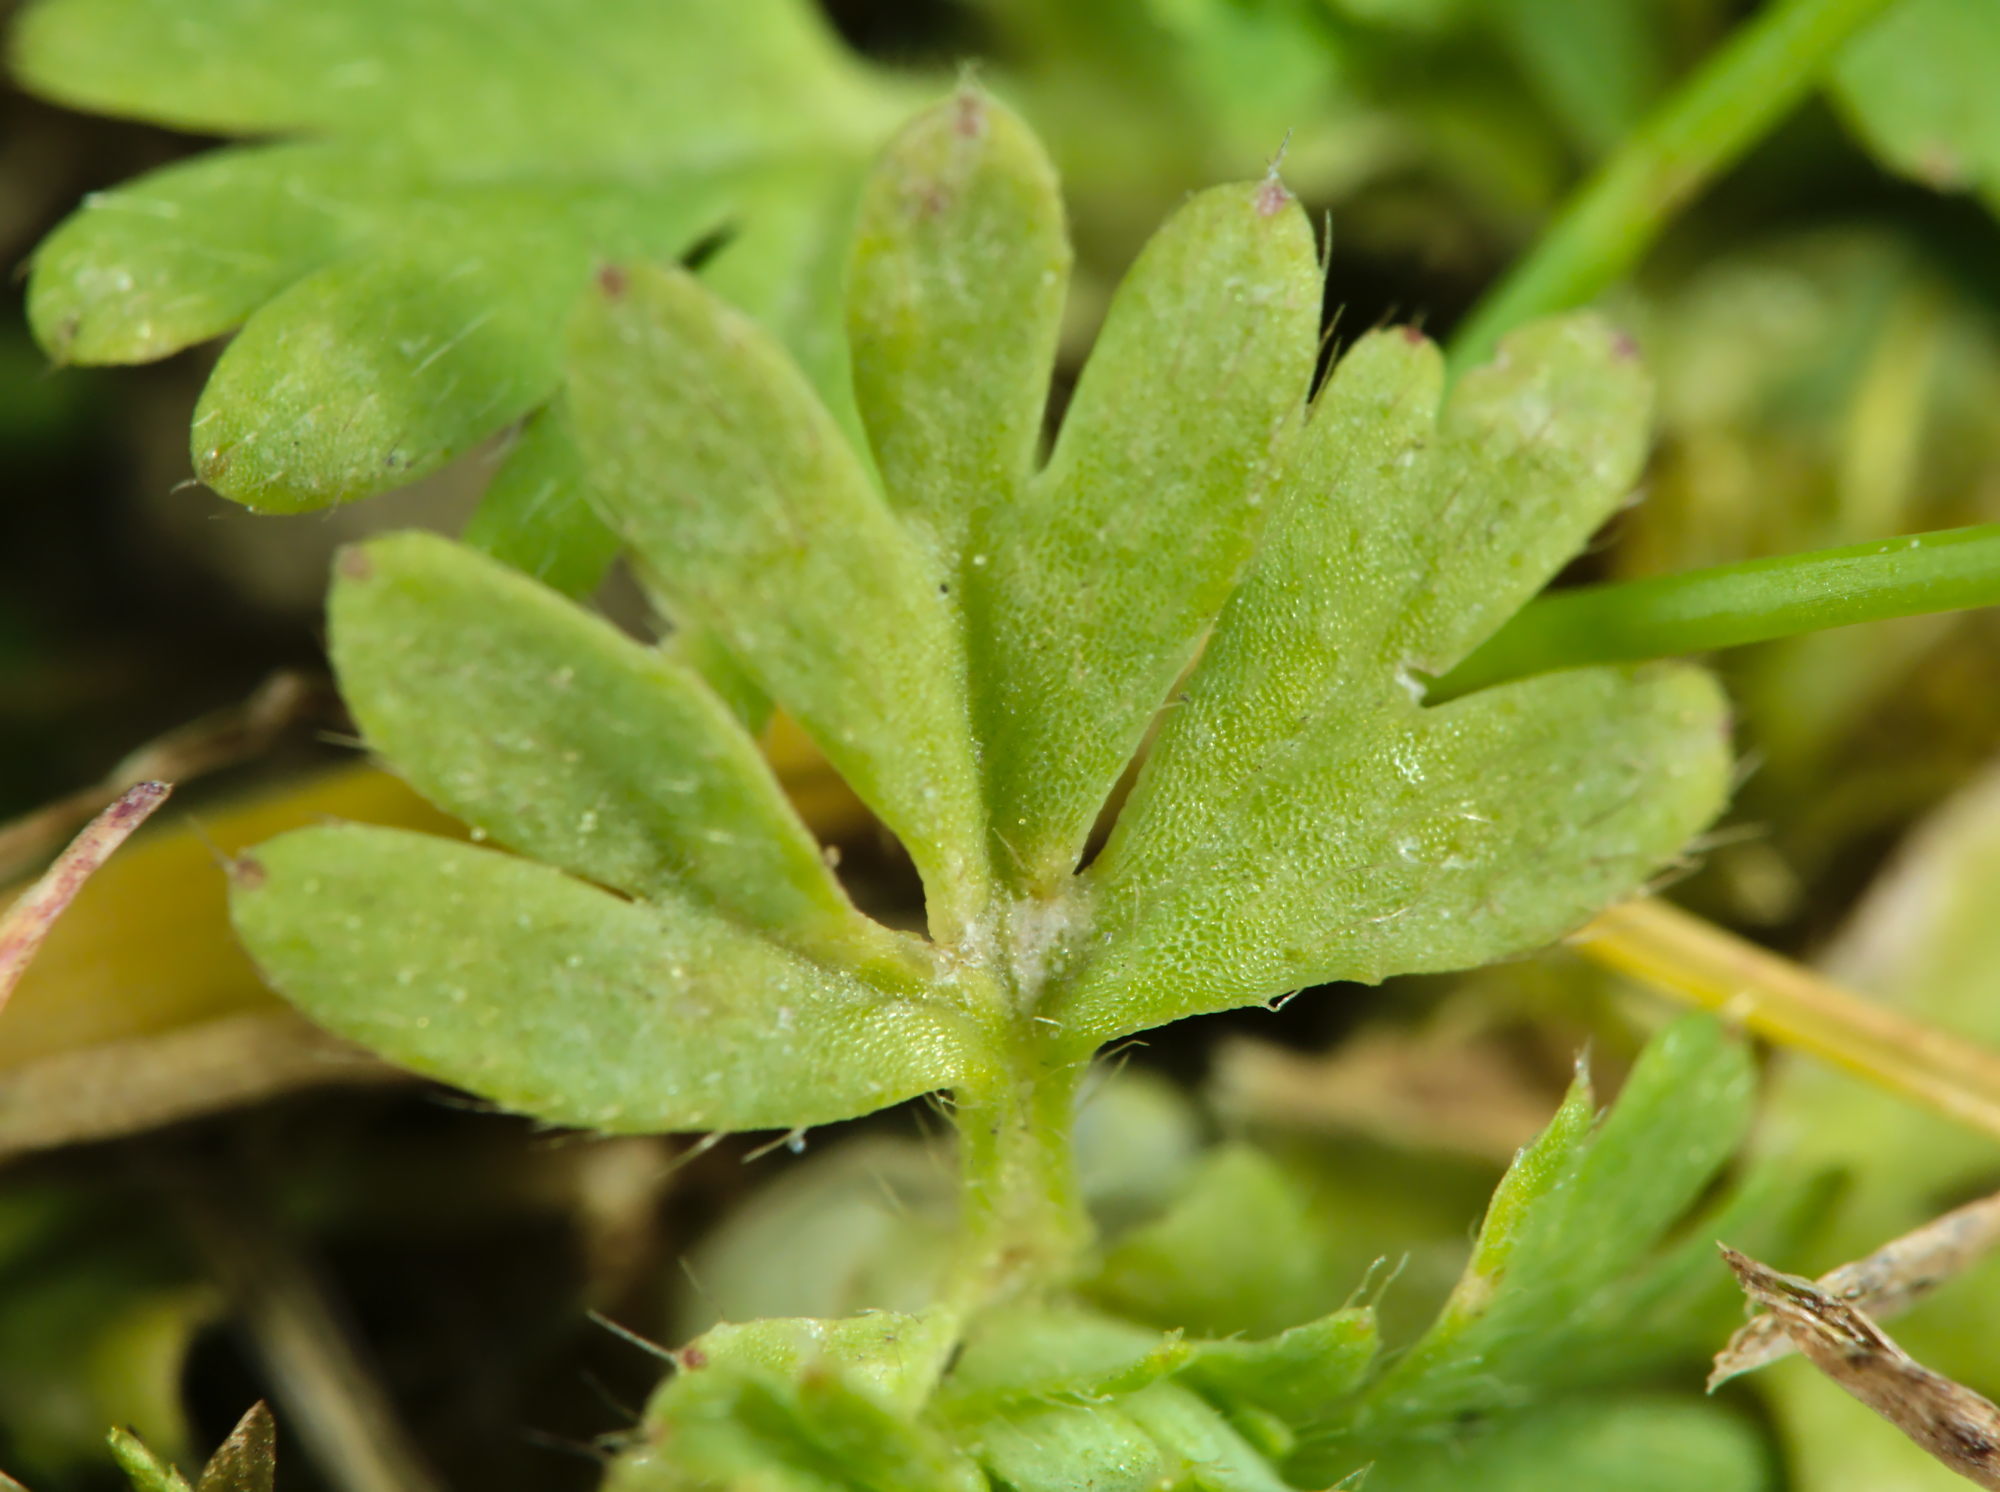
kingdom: Plantae
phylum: Tracheophyta
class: Magnoliopsida
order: Rosales
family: Rosaceae
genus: Aphanes
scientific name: Aphanes australis
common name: Slender parsley-piert
